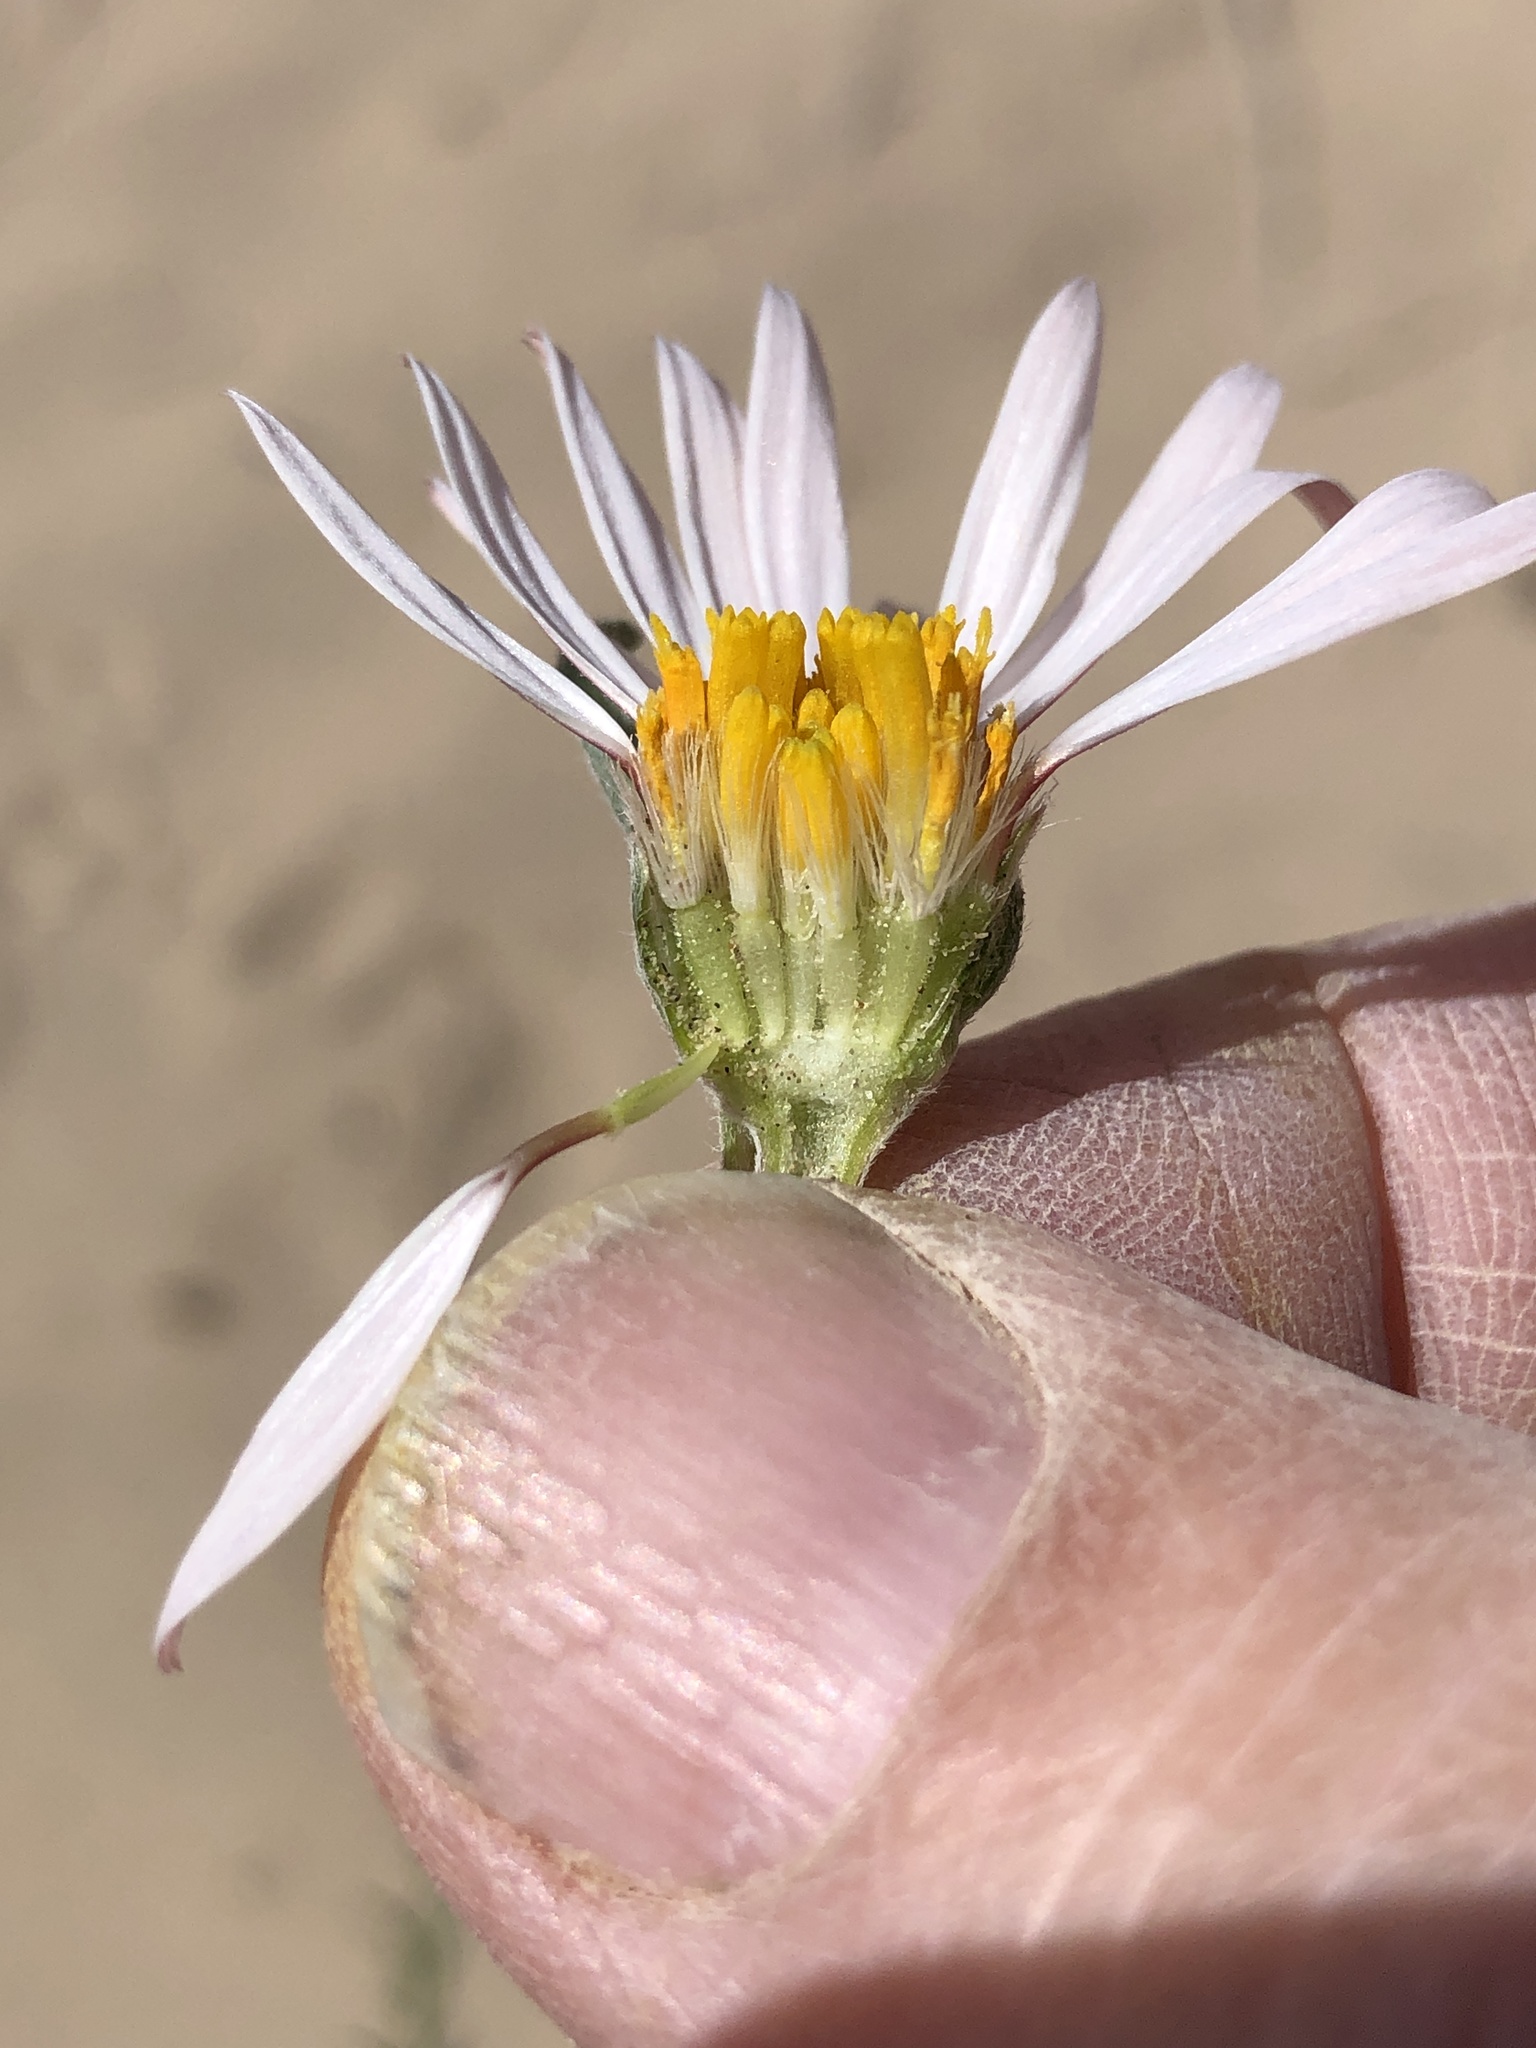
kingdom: Plantae
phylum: Tracheophyta
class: Magnoliopsida
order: Asterales
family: Asteraceae
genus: Townsendia
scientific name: Townsendia florifera
